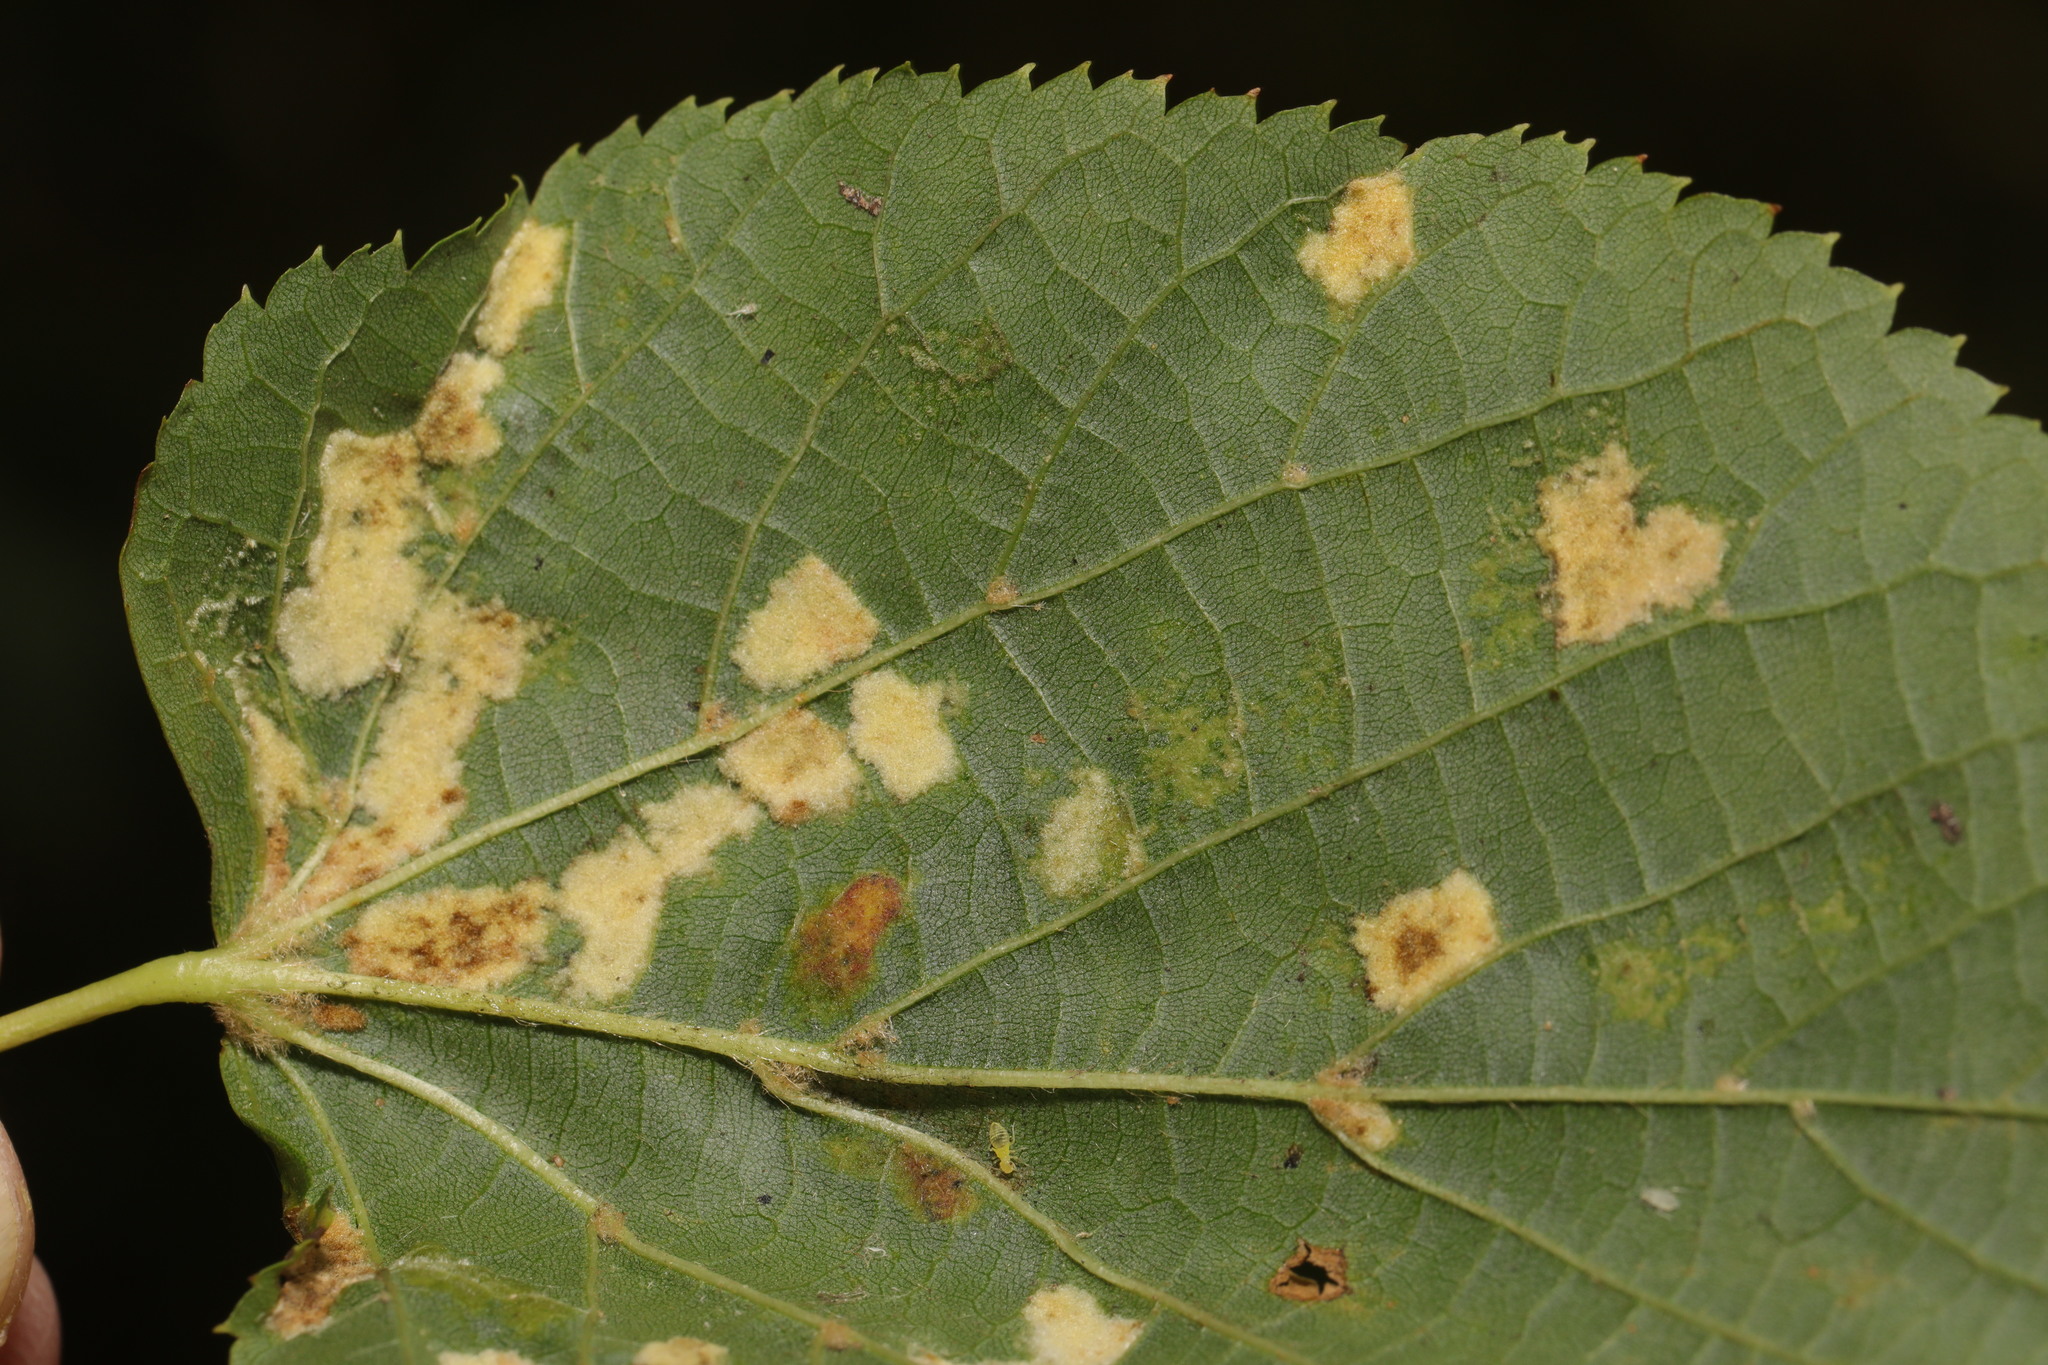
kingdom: Animalia
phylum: Arthropoda
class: Arachnida
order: Trombidiformes
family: Eriophyidae
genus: Eriophyes
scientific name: Eriophyes leiosoma
